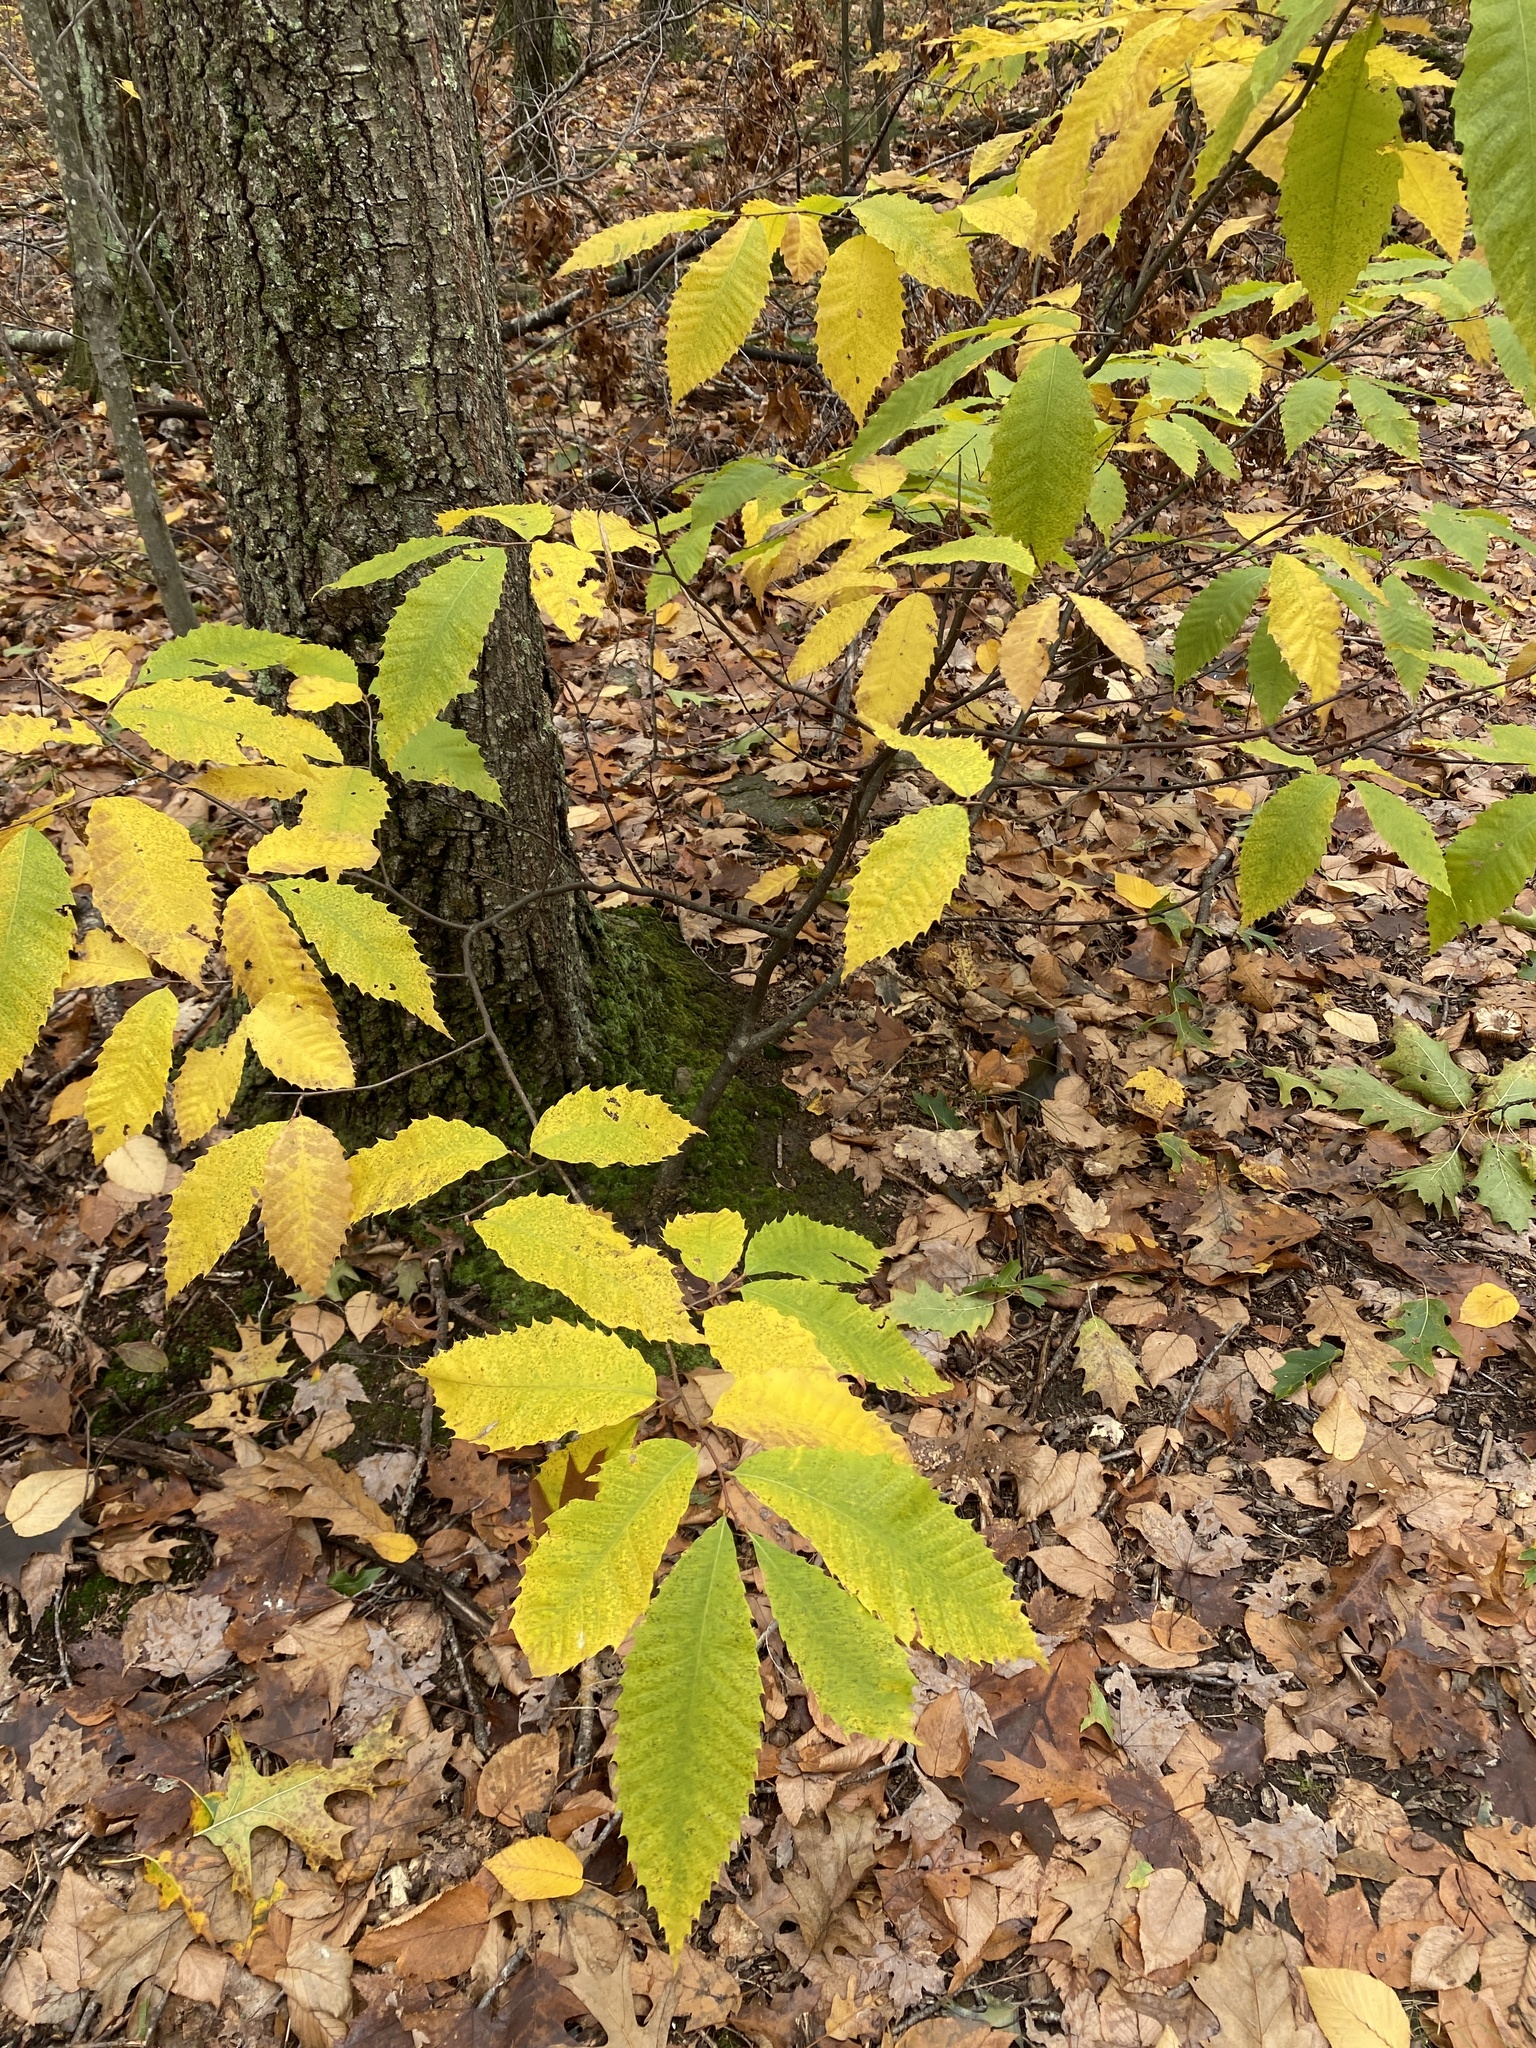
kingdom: Plantae
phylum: Tracheophyta
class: Magnoliopsida
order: Fagales
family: Fagaceae
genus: Castanea
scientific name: Castanea dentata
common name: American chestnut
